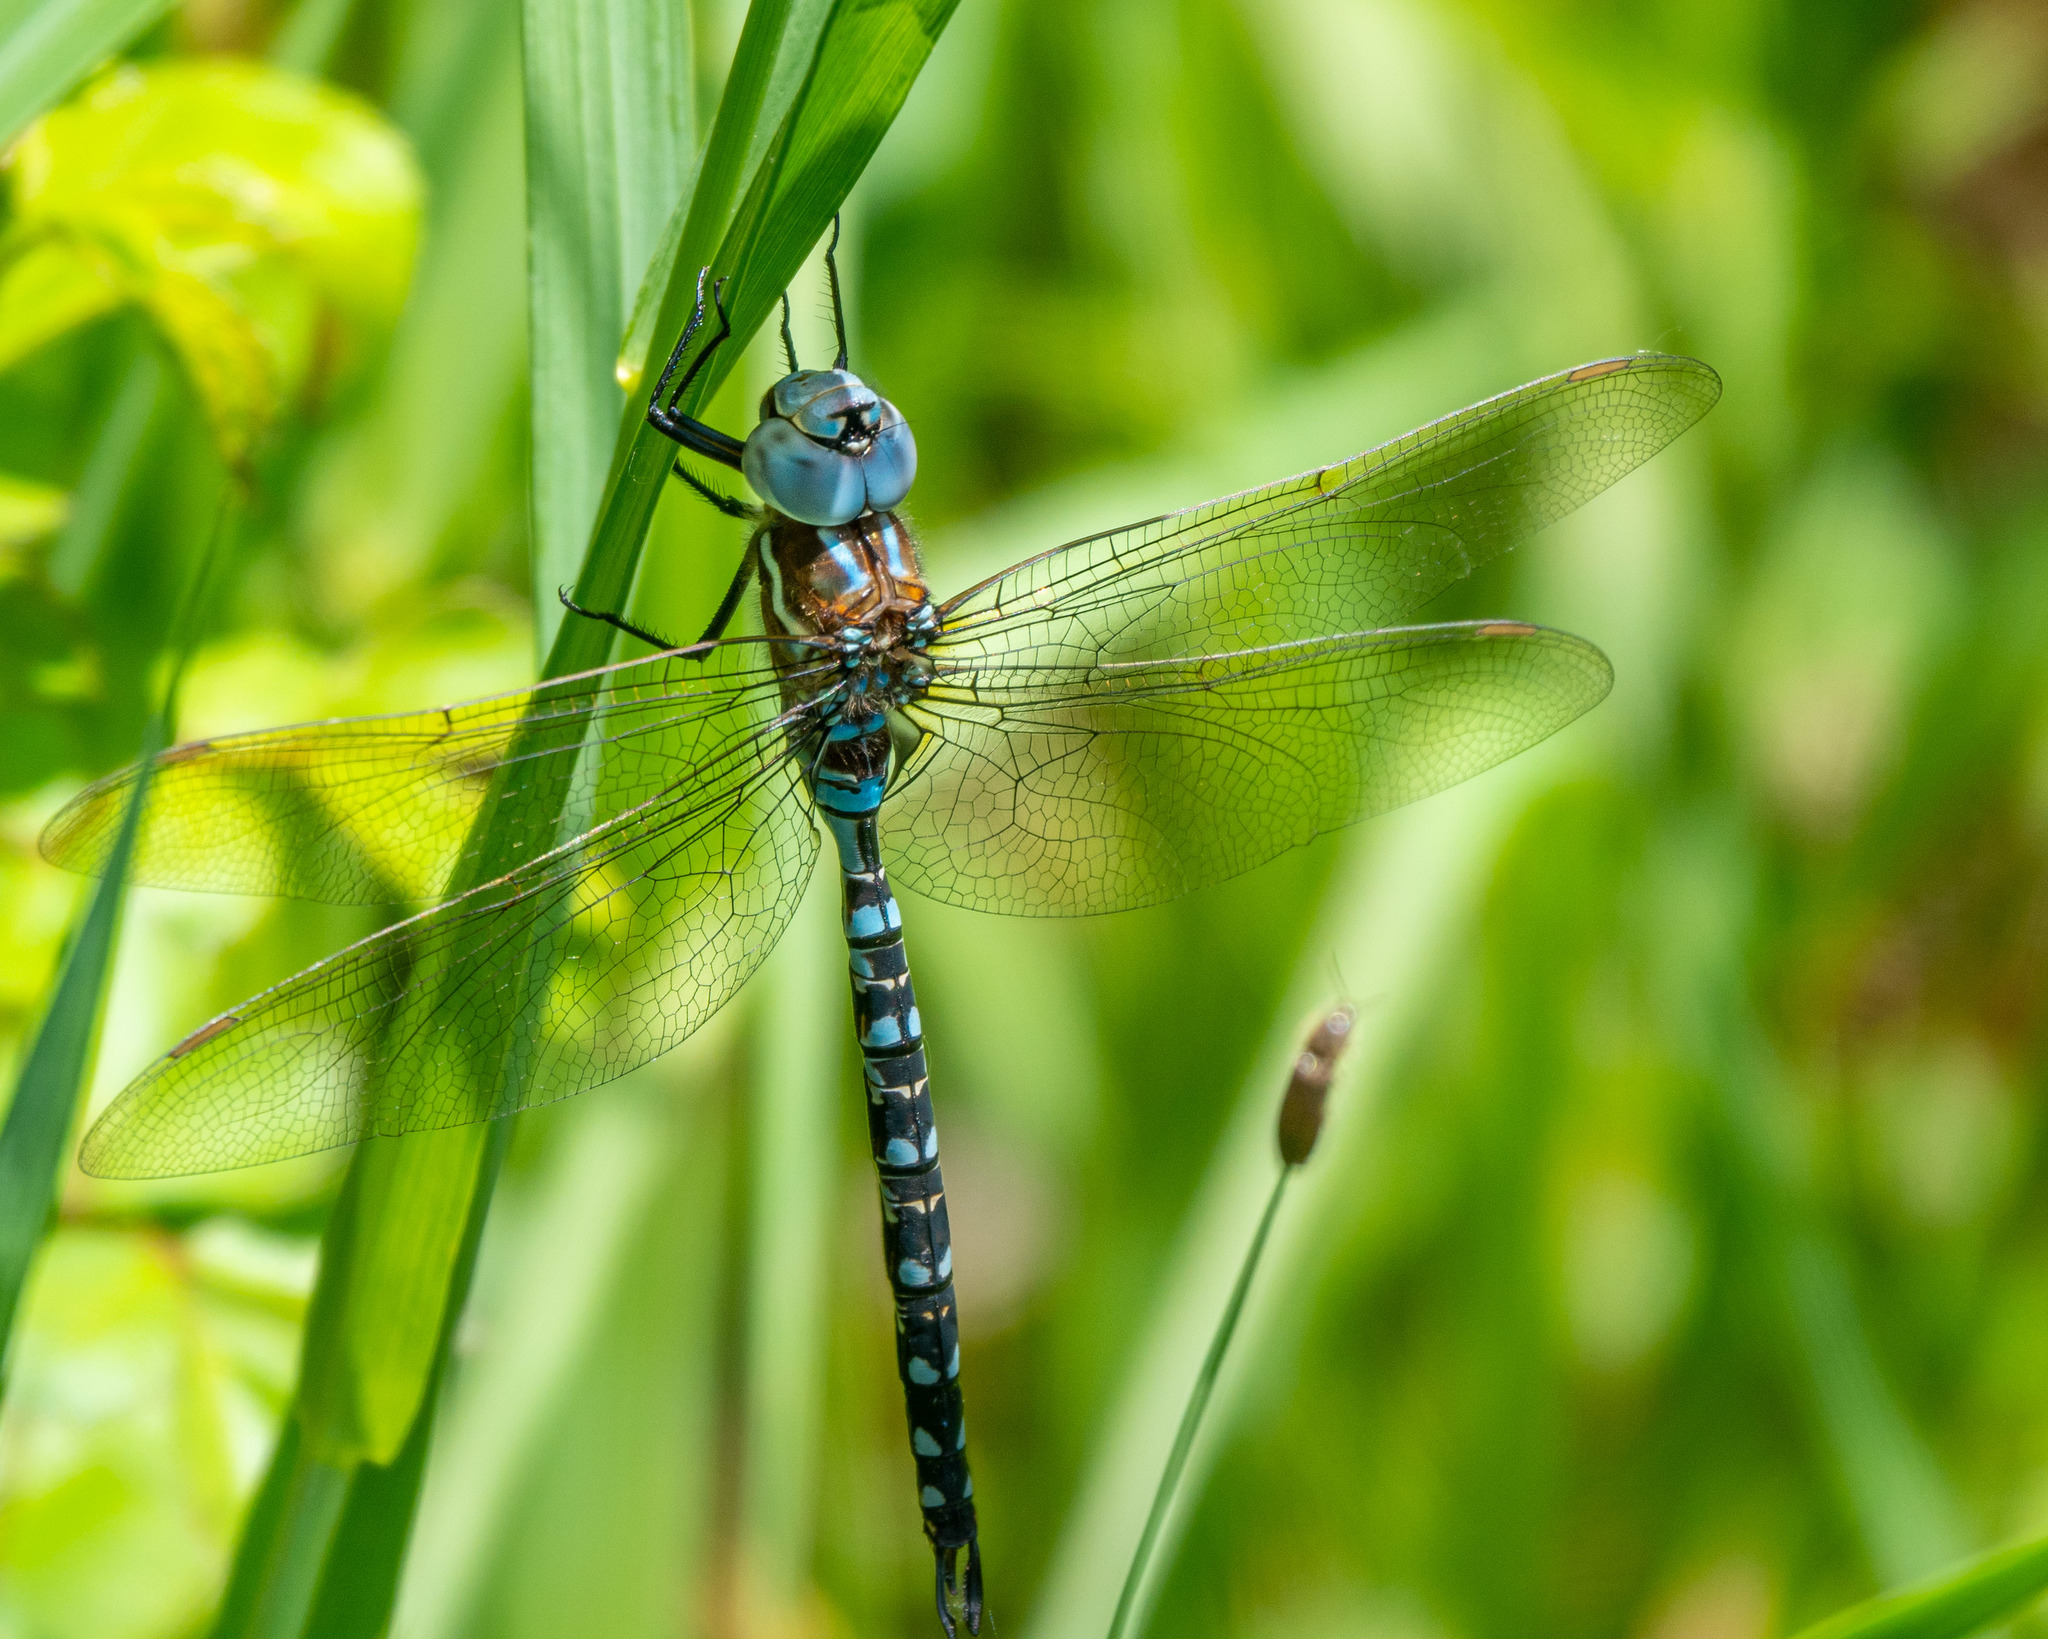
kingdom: Animalia
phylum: Arthropoda
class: Insecta
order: Odonata
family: Aeshnidae
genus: Rhionaeschna
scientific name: Rhionaeschna mutata
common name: Spatterdock darner
